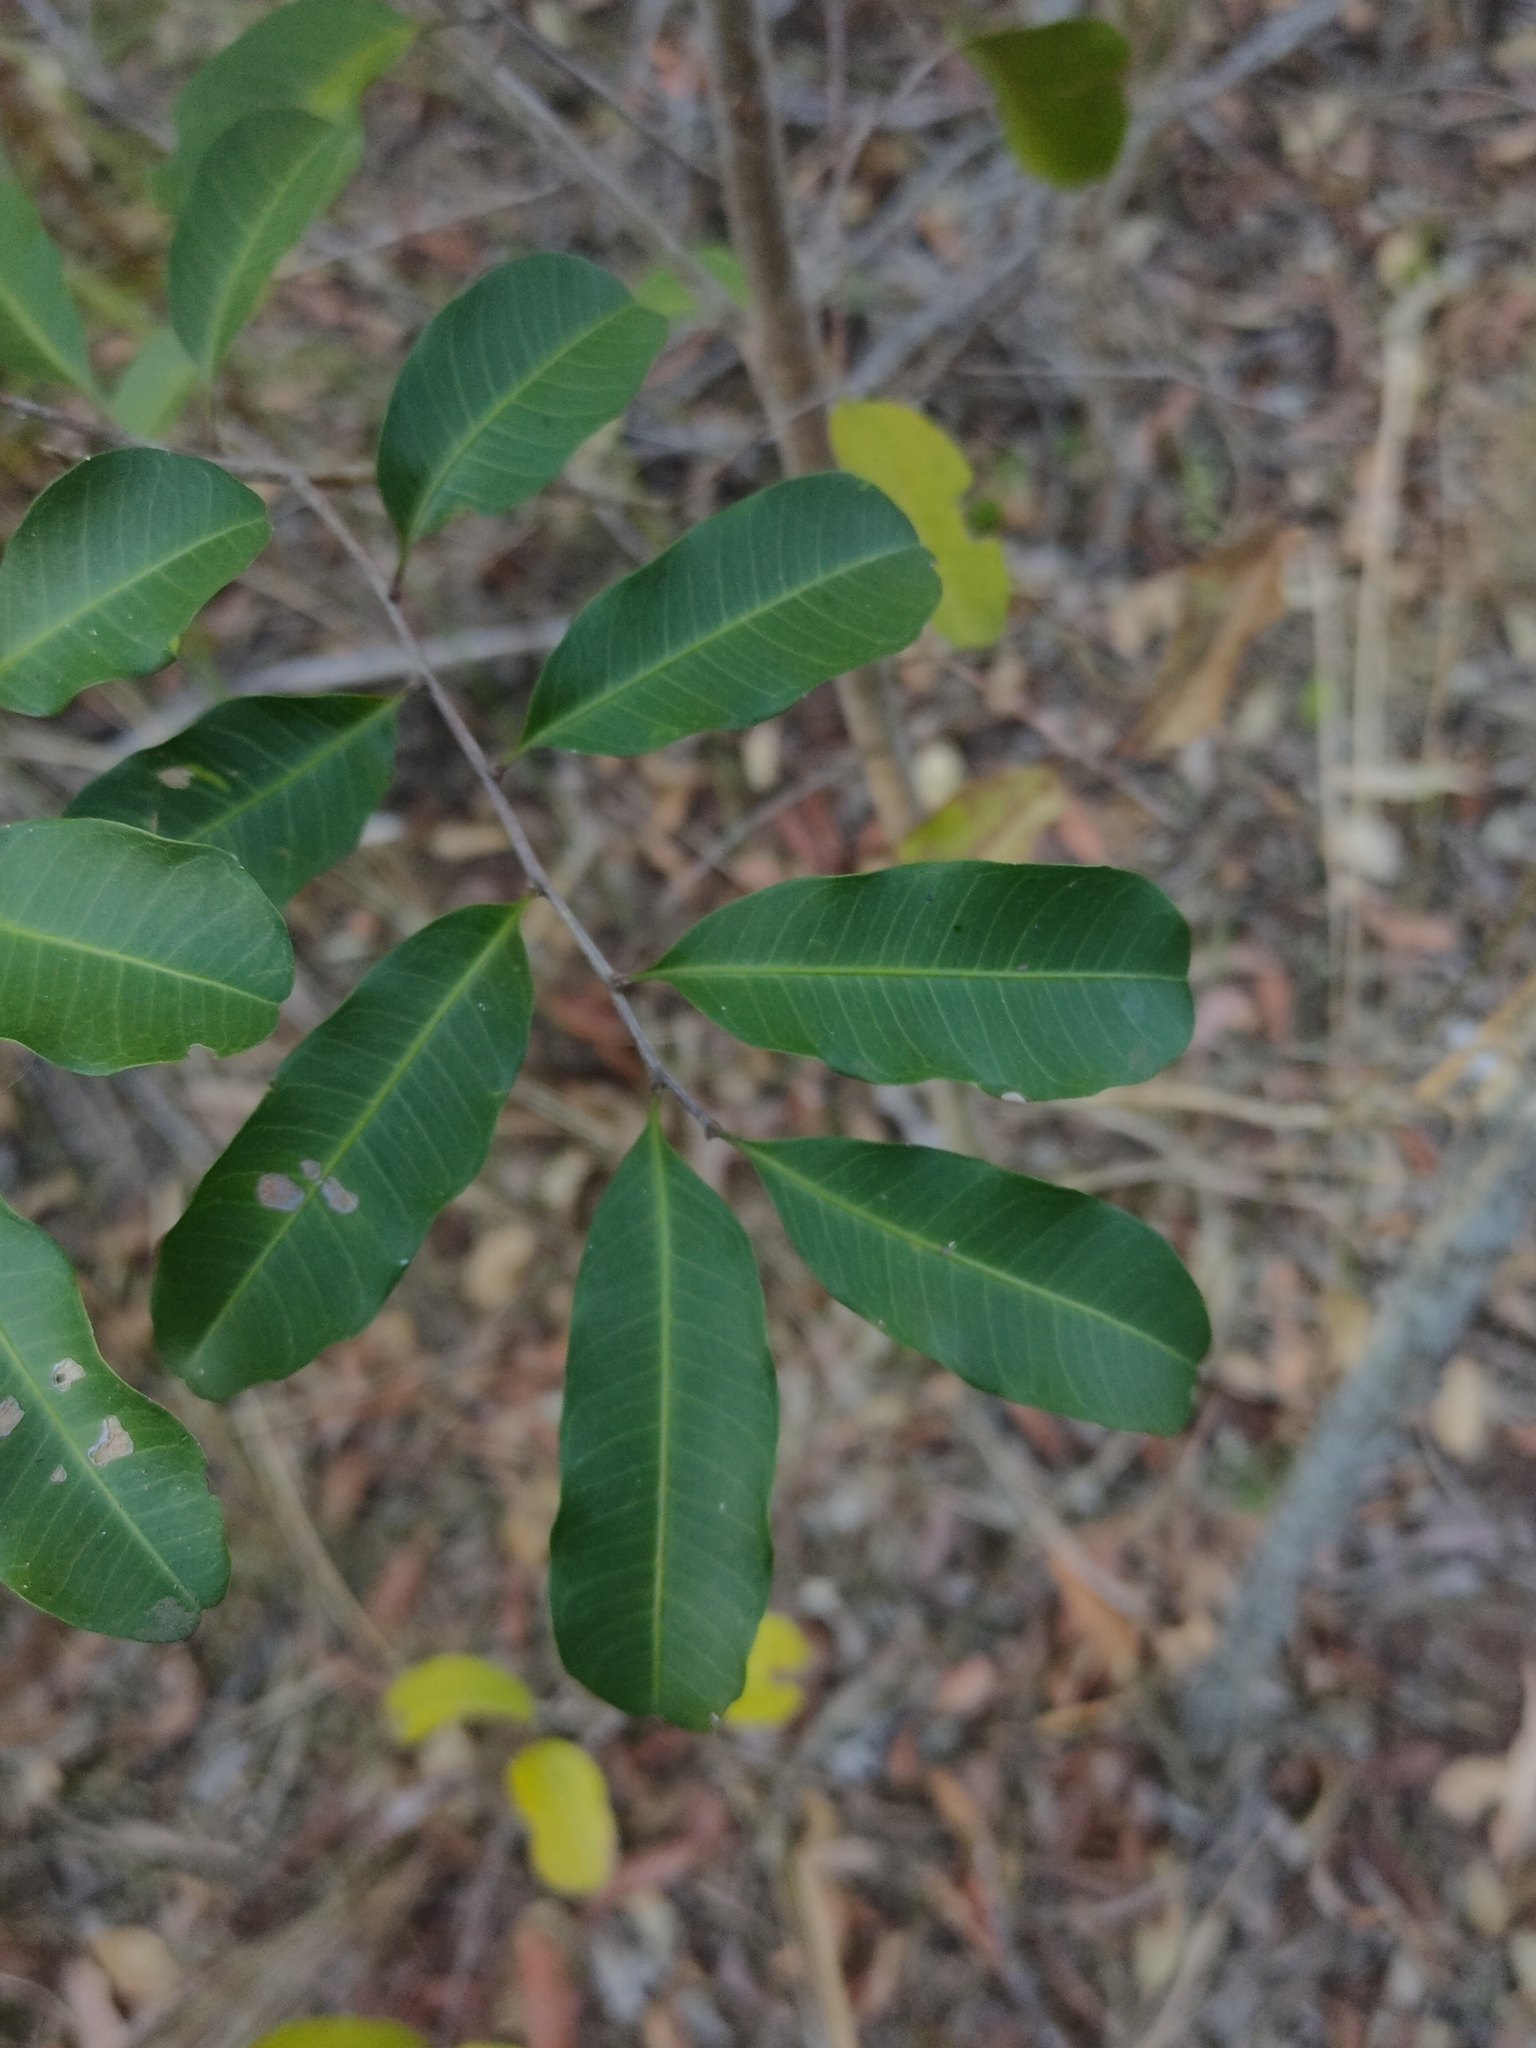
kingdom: Plantae
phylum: Tracheophyta
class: Magnoliopsida
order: Sapindales
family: Sapindaceae
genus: Cupaniopsis
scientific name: Cupaniopsis parvifolia
